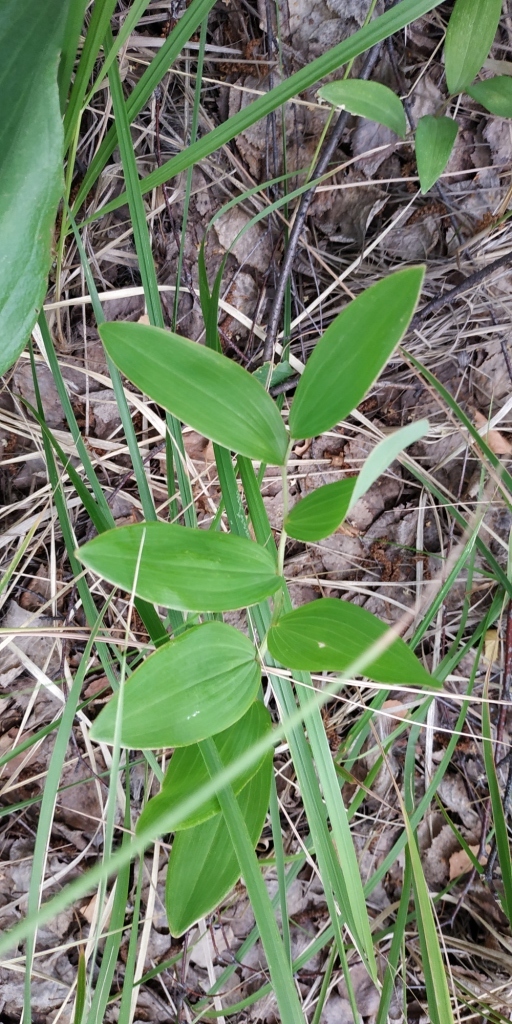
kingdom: Plantae
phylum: Tracheophyta
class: Liliopsida
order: Asparagales
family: Asparagaceae
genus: Polygonatum
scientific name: Polygonatum odoratum
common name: Angular solomon's-seal
